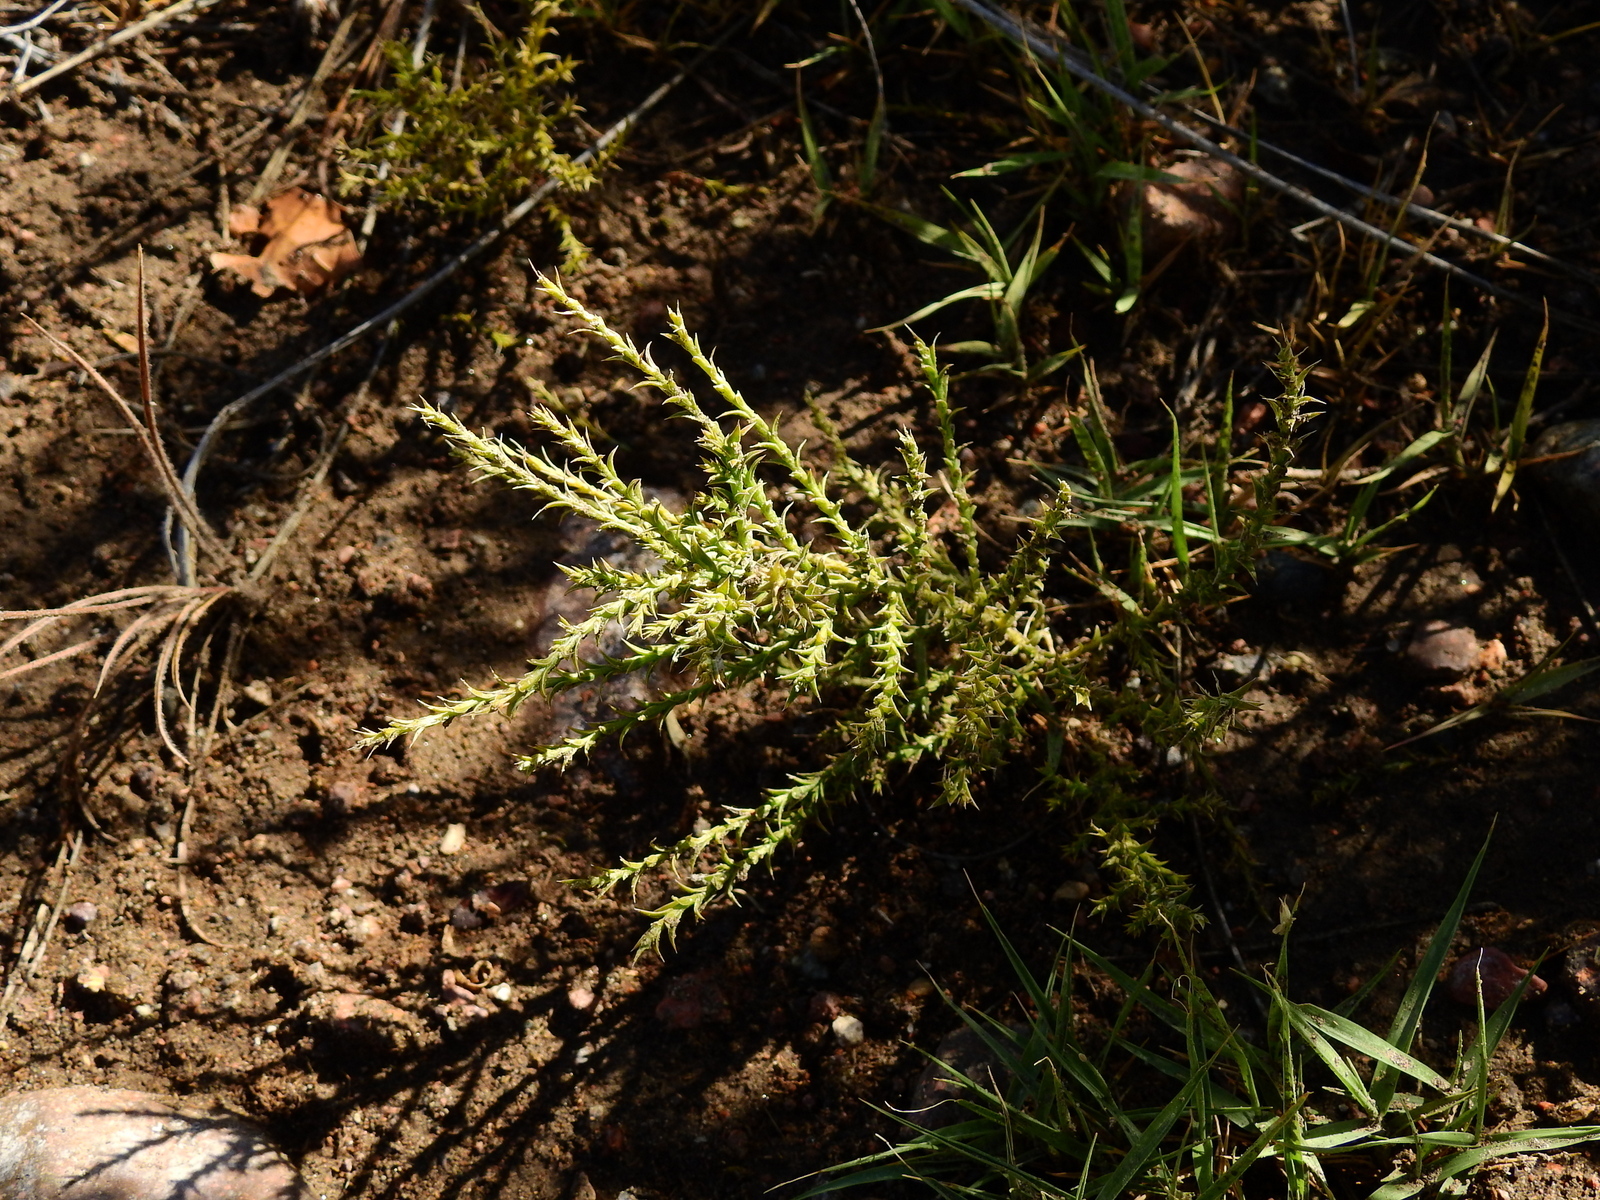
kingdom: Plantae
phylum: Tracheophyta
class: Magnoliopsida
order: Santalales
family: Schoepfiaceae
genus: Arjona
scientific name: Arjona tuberosa
